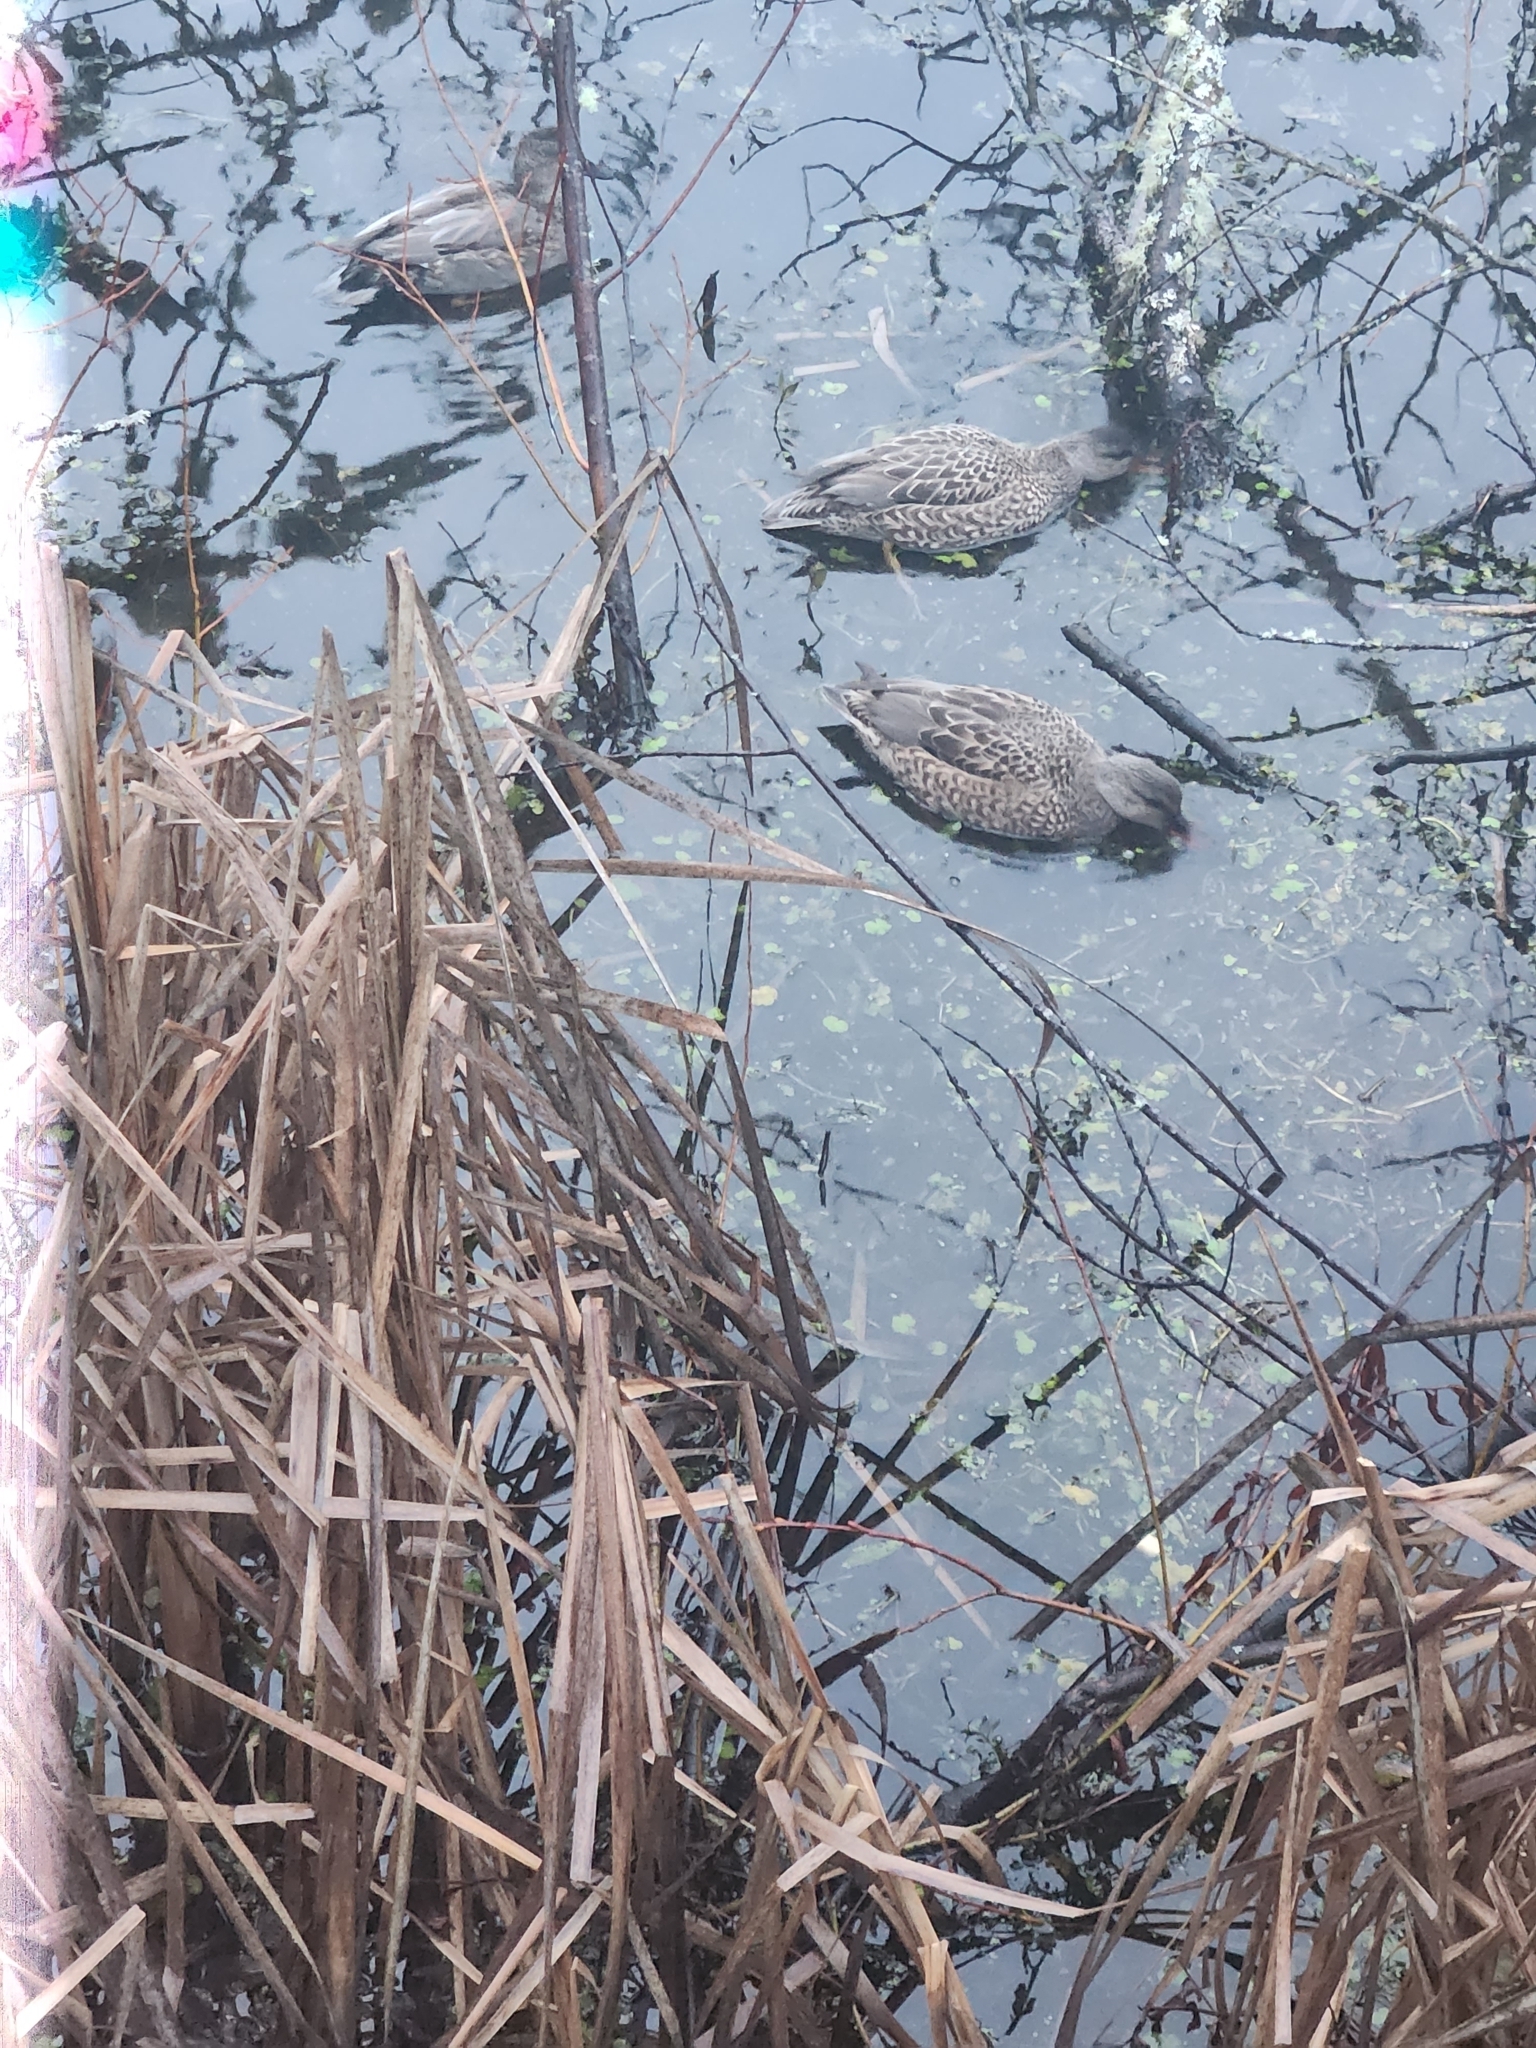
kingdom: Animalia
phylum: Chordata
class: Aves
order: Anseriformes
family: Anatidae
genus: Mareca
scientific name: Mareca strepera
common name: Gadwall
